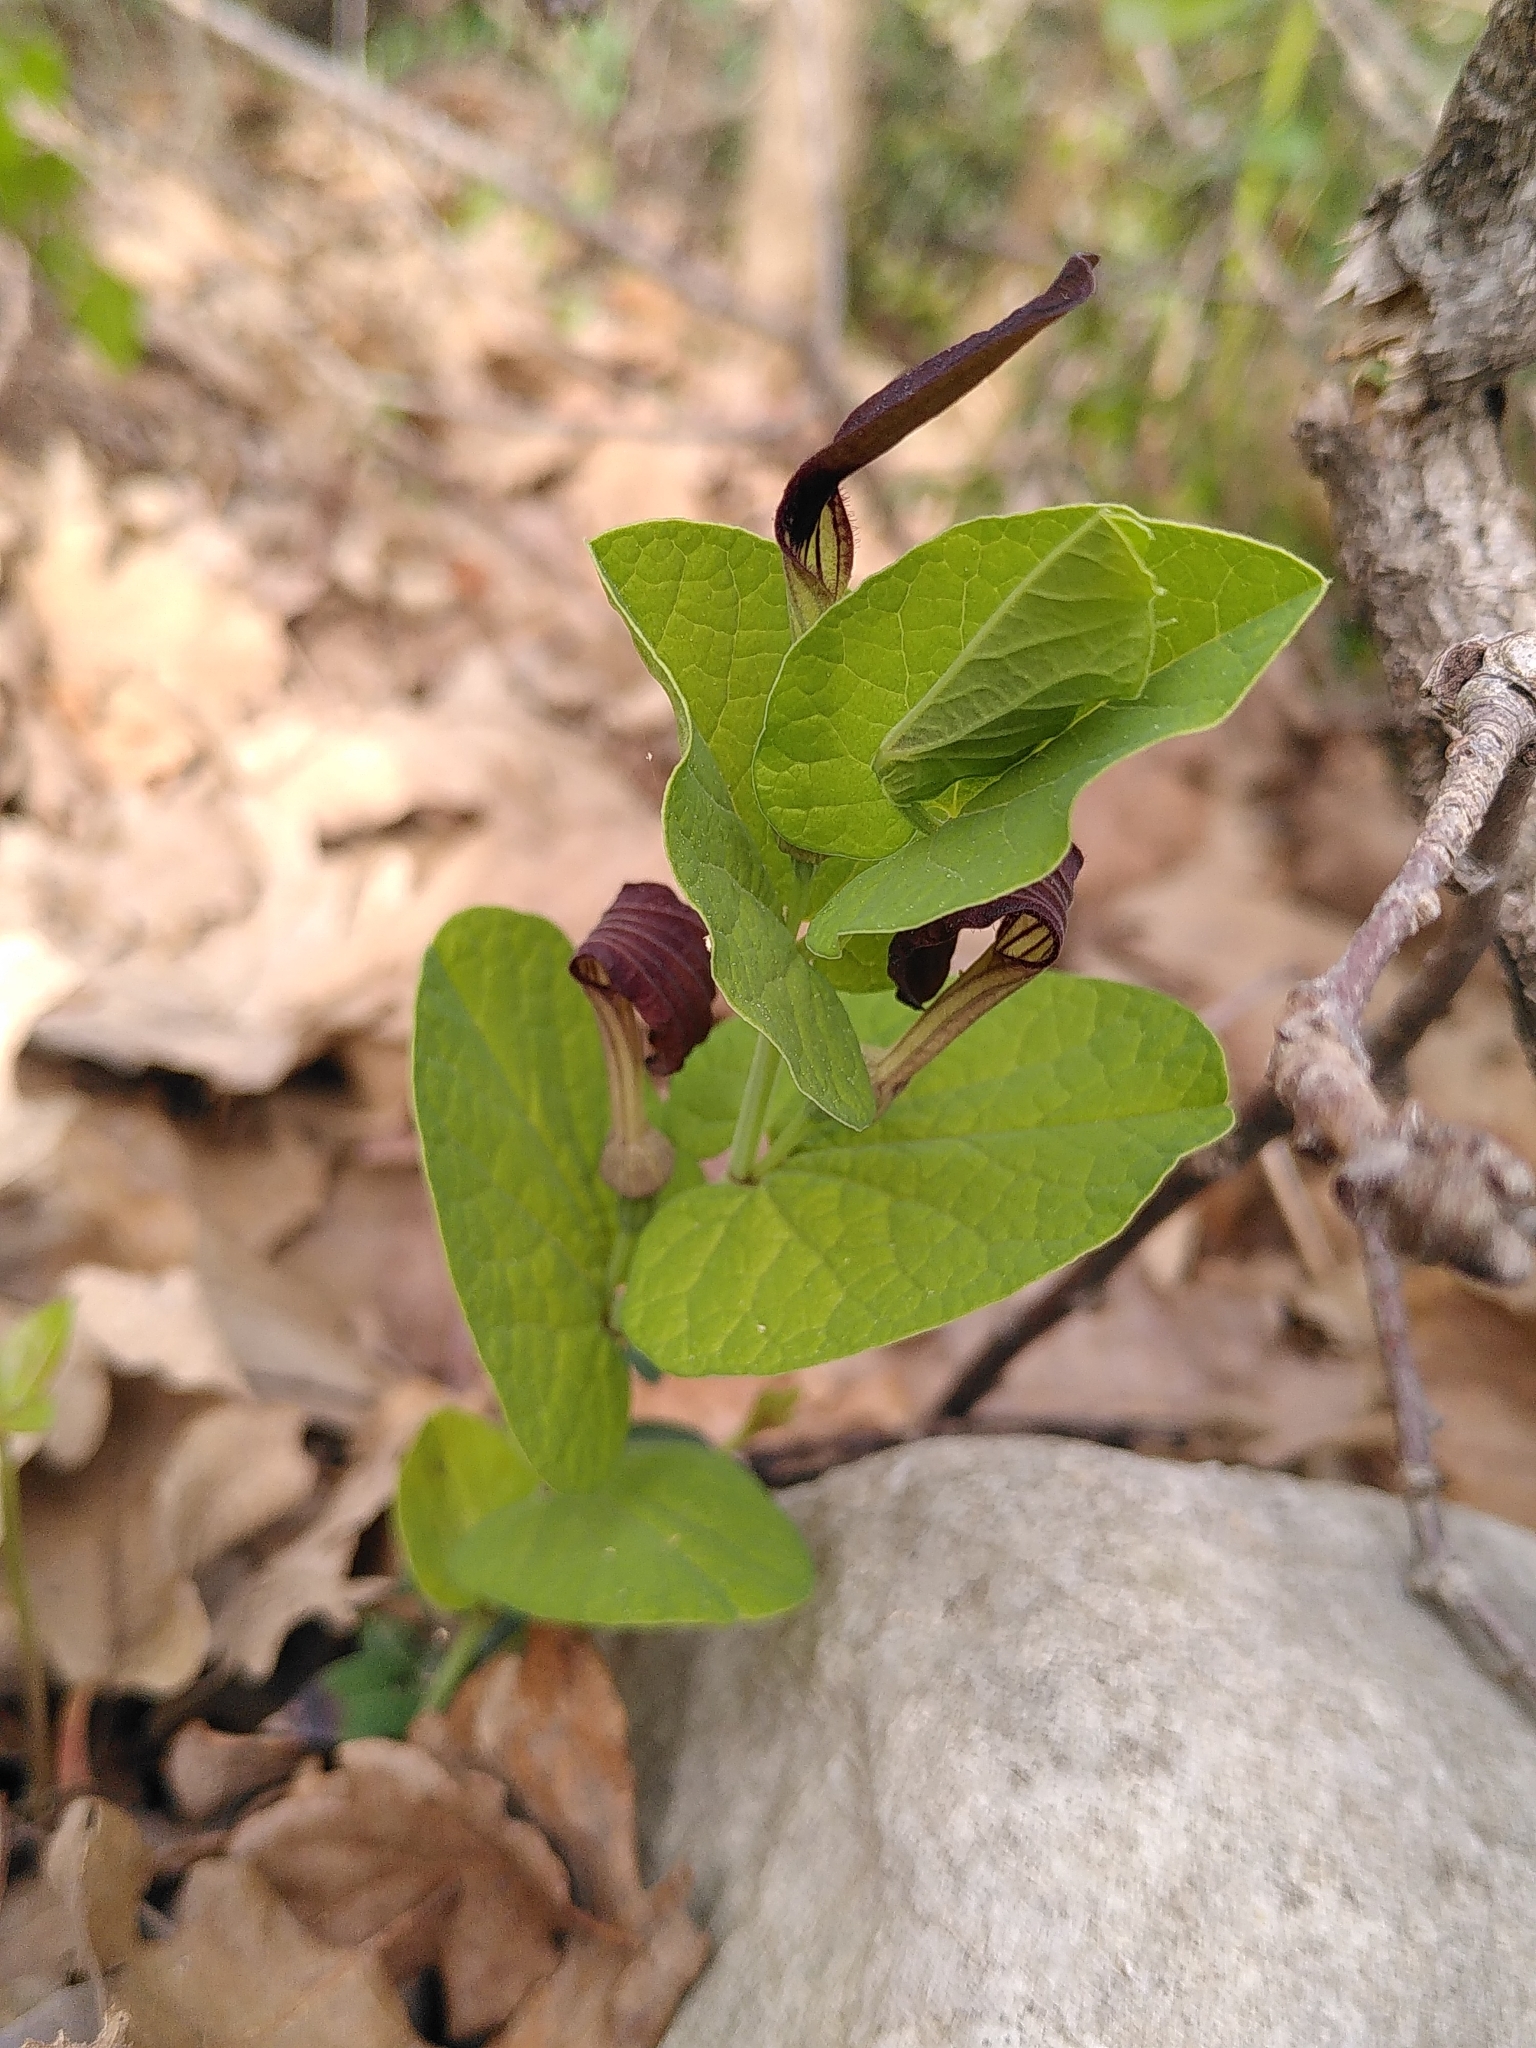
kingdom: Plantae
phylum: Tracheophyta
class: Magnoliopsida
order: Piperales
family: Aristolochiaceae
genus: Aristolochia
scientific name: Aristolochia rotunda
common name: Smearwort
